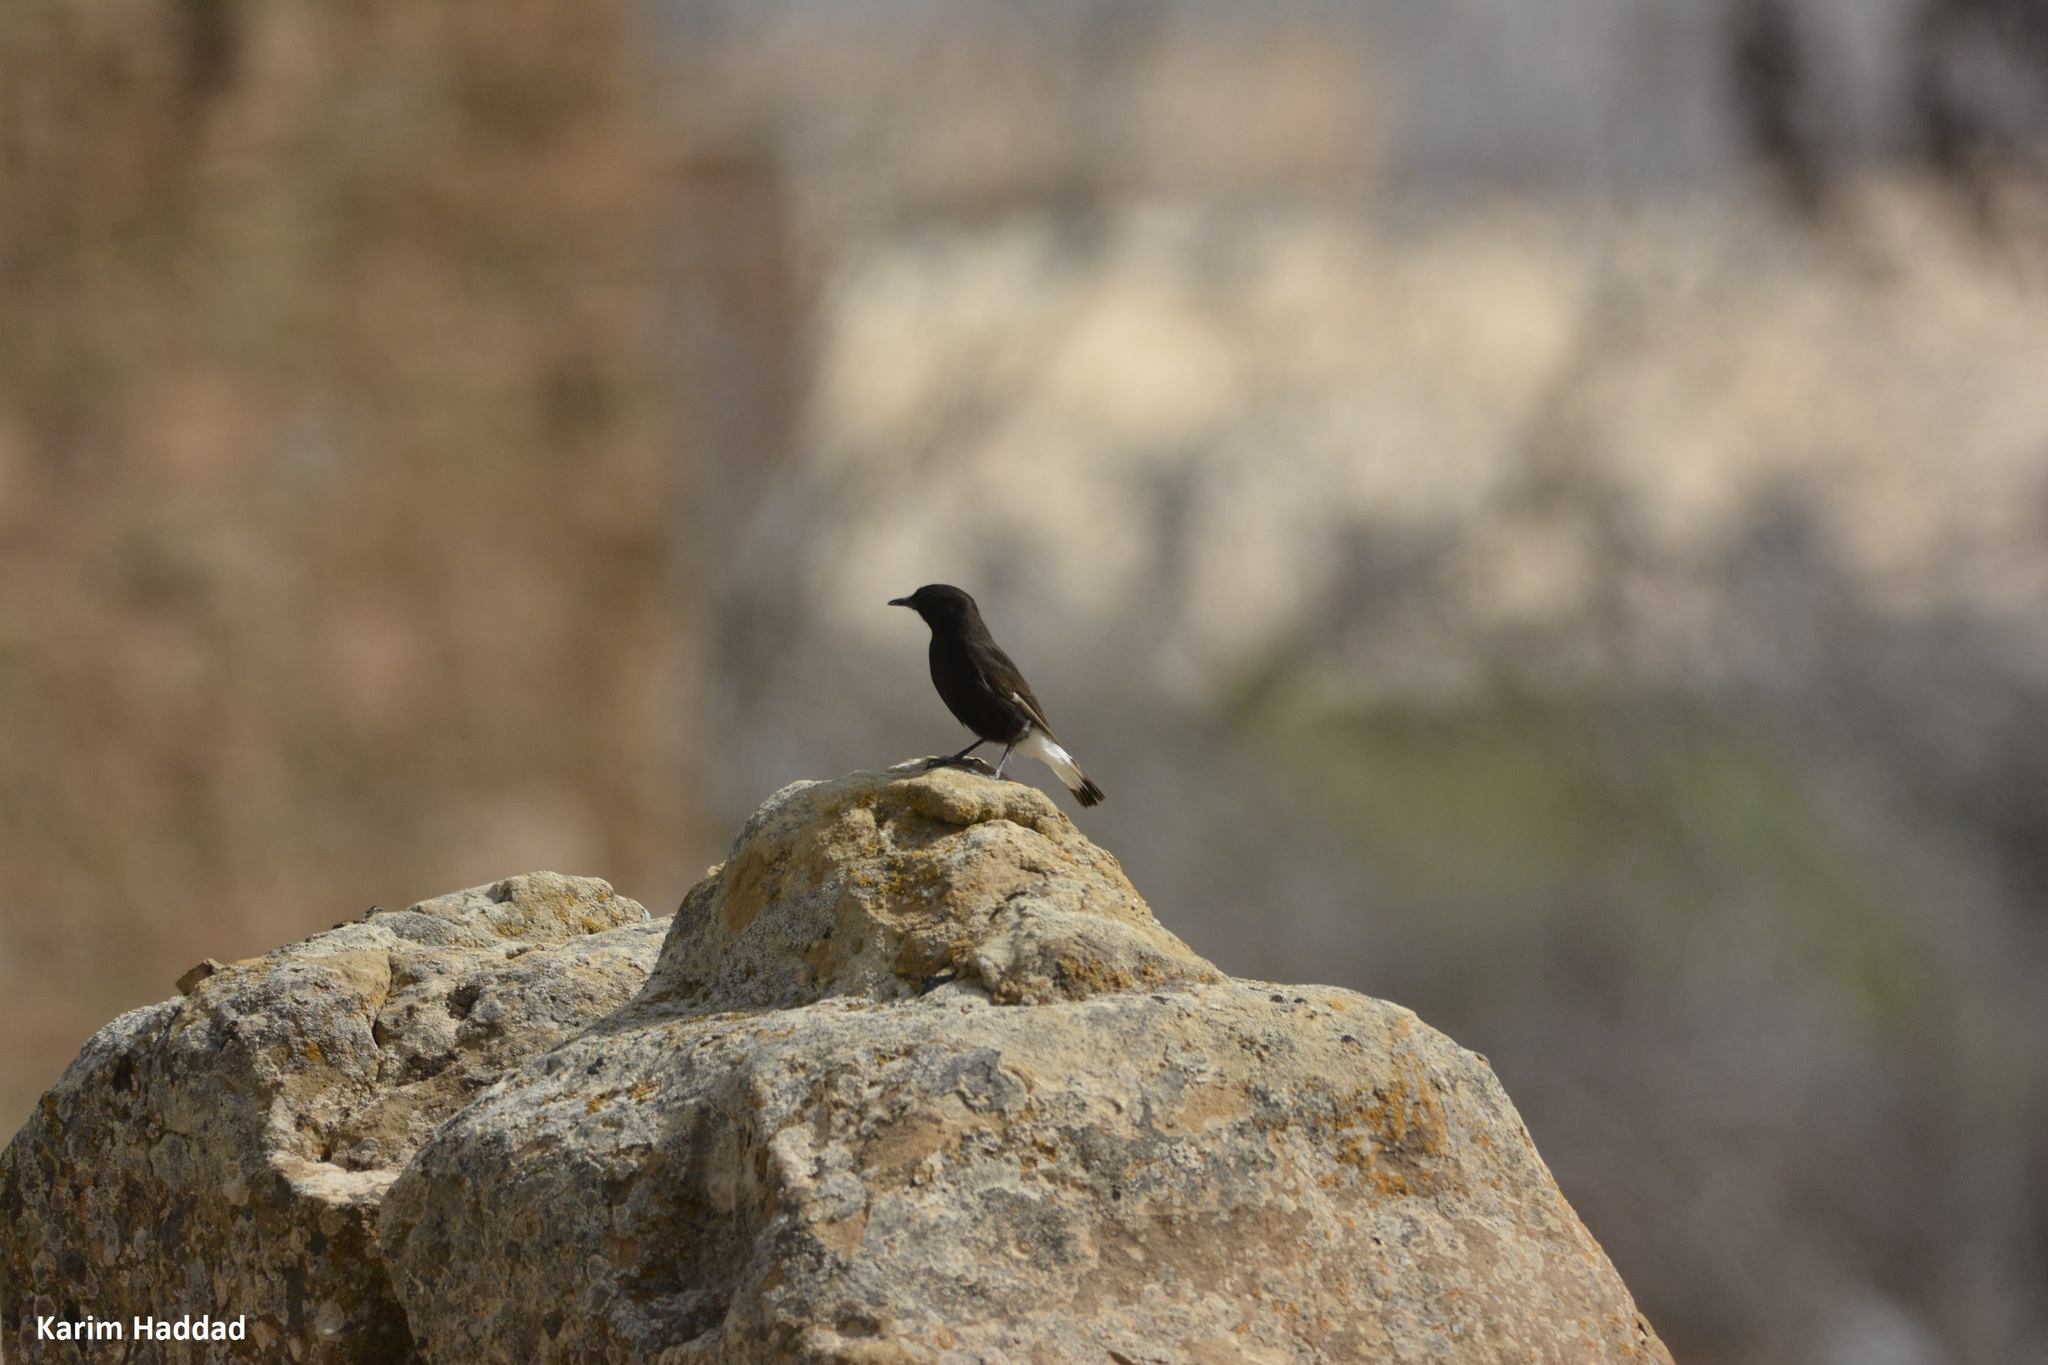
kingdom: Animalia
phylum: Chordata
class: Aves
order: Passeriformes
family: Muscicapidae
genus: Oenanthe
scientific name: Oenanthe leucura
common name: Black wheatear
